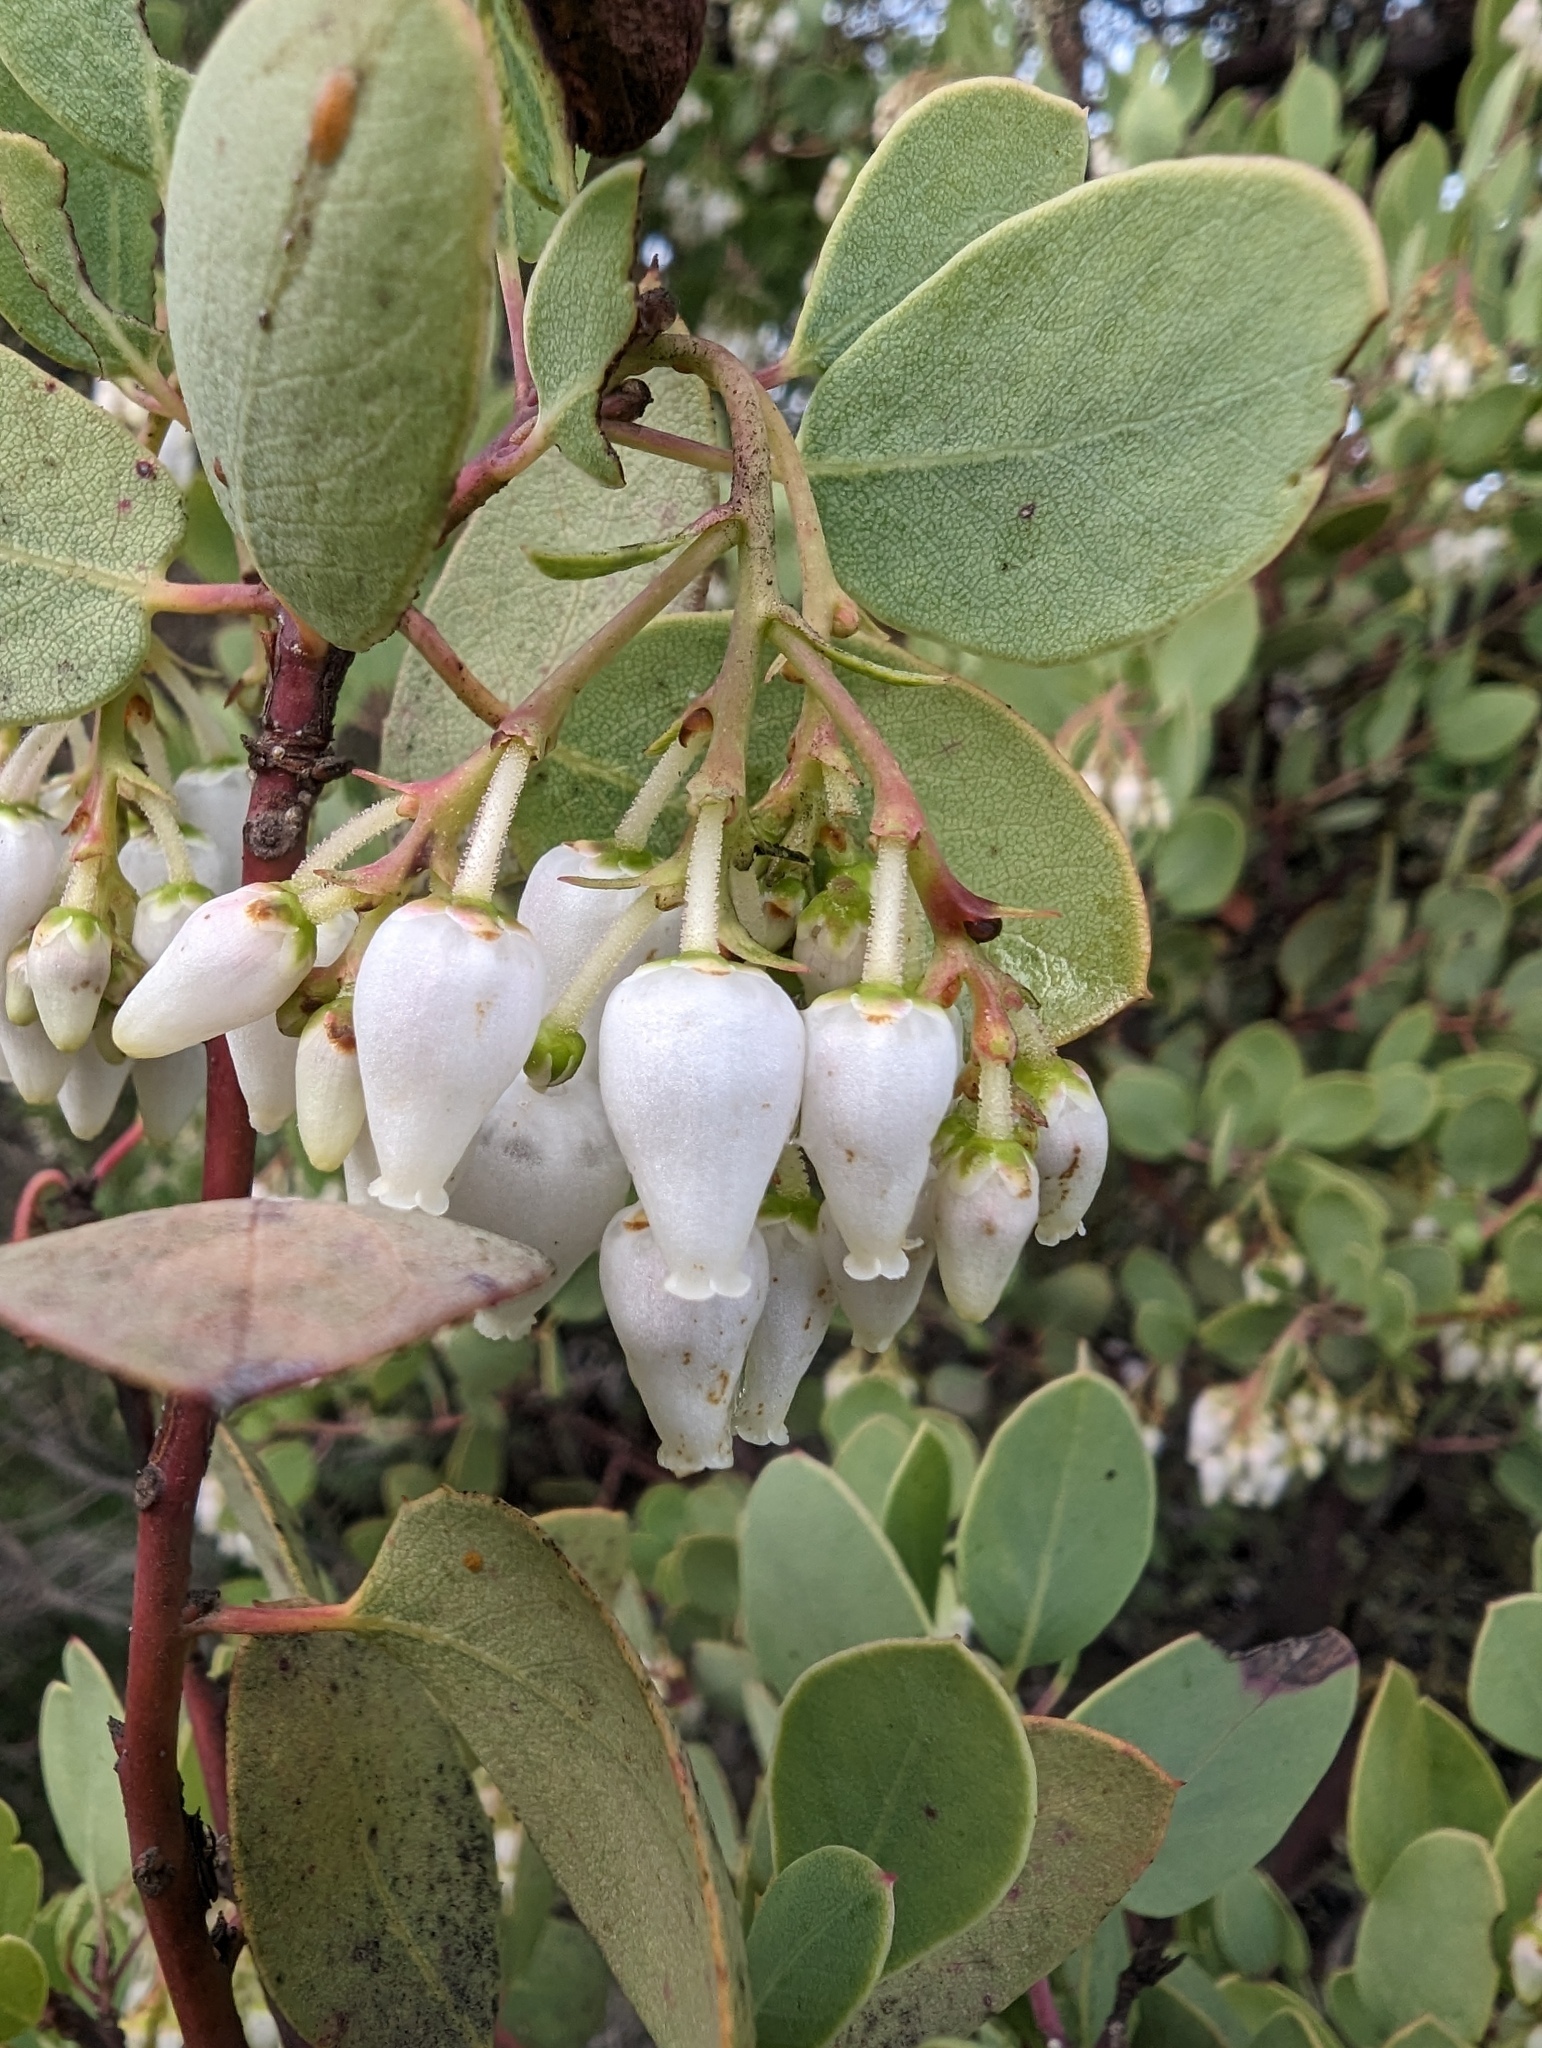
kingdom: Plantae
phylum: Tracheophyta
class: Magnoliopsida
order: Ericales
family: Ericaceae
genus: Arctostaphylos
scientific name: Arctostaphylos glauca
